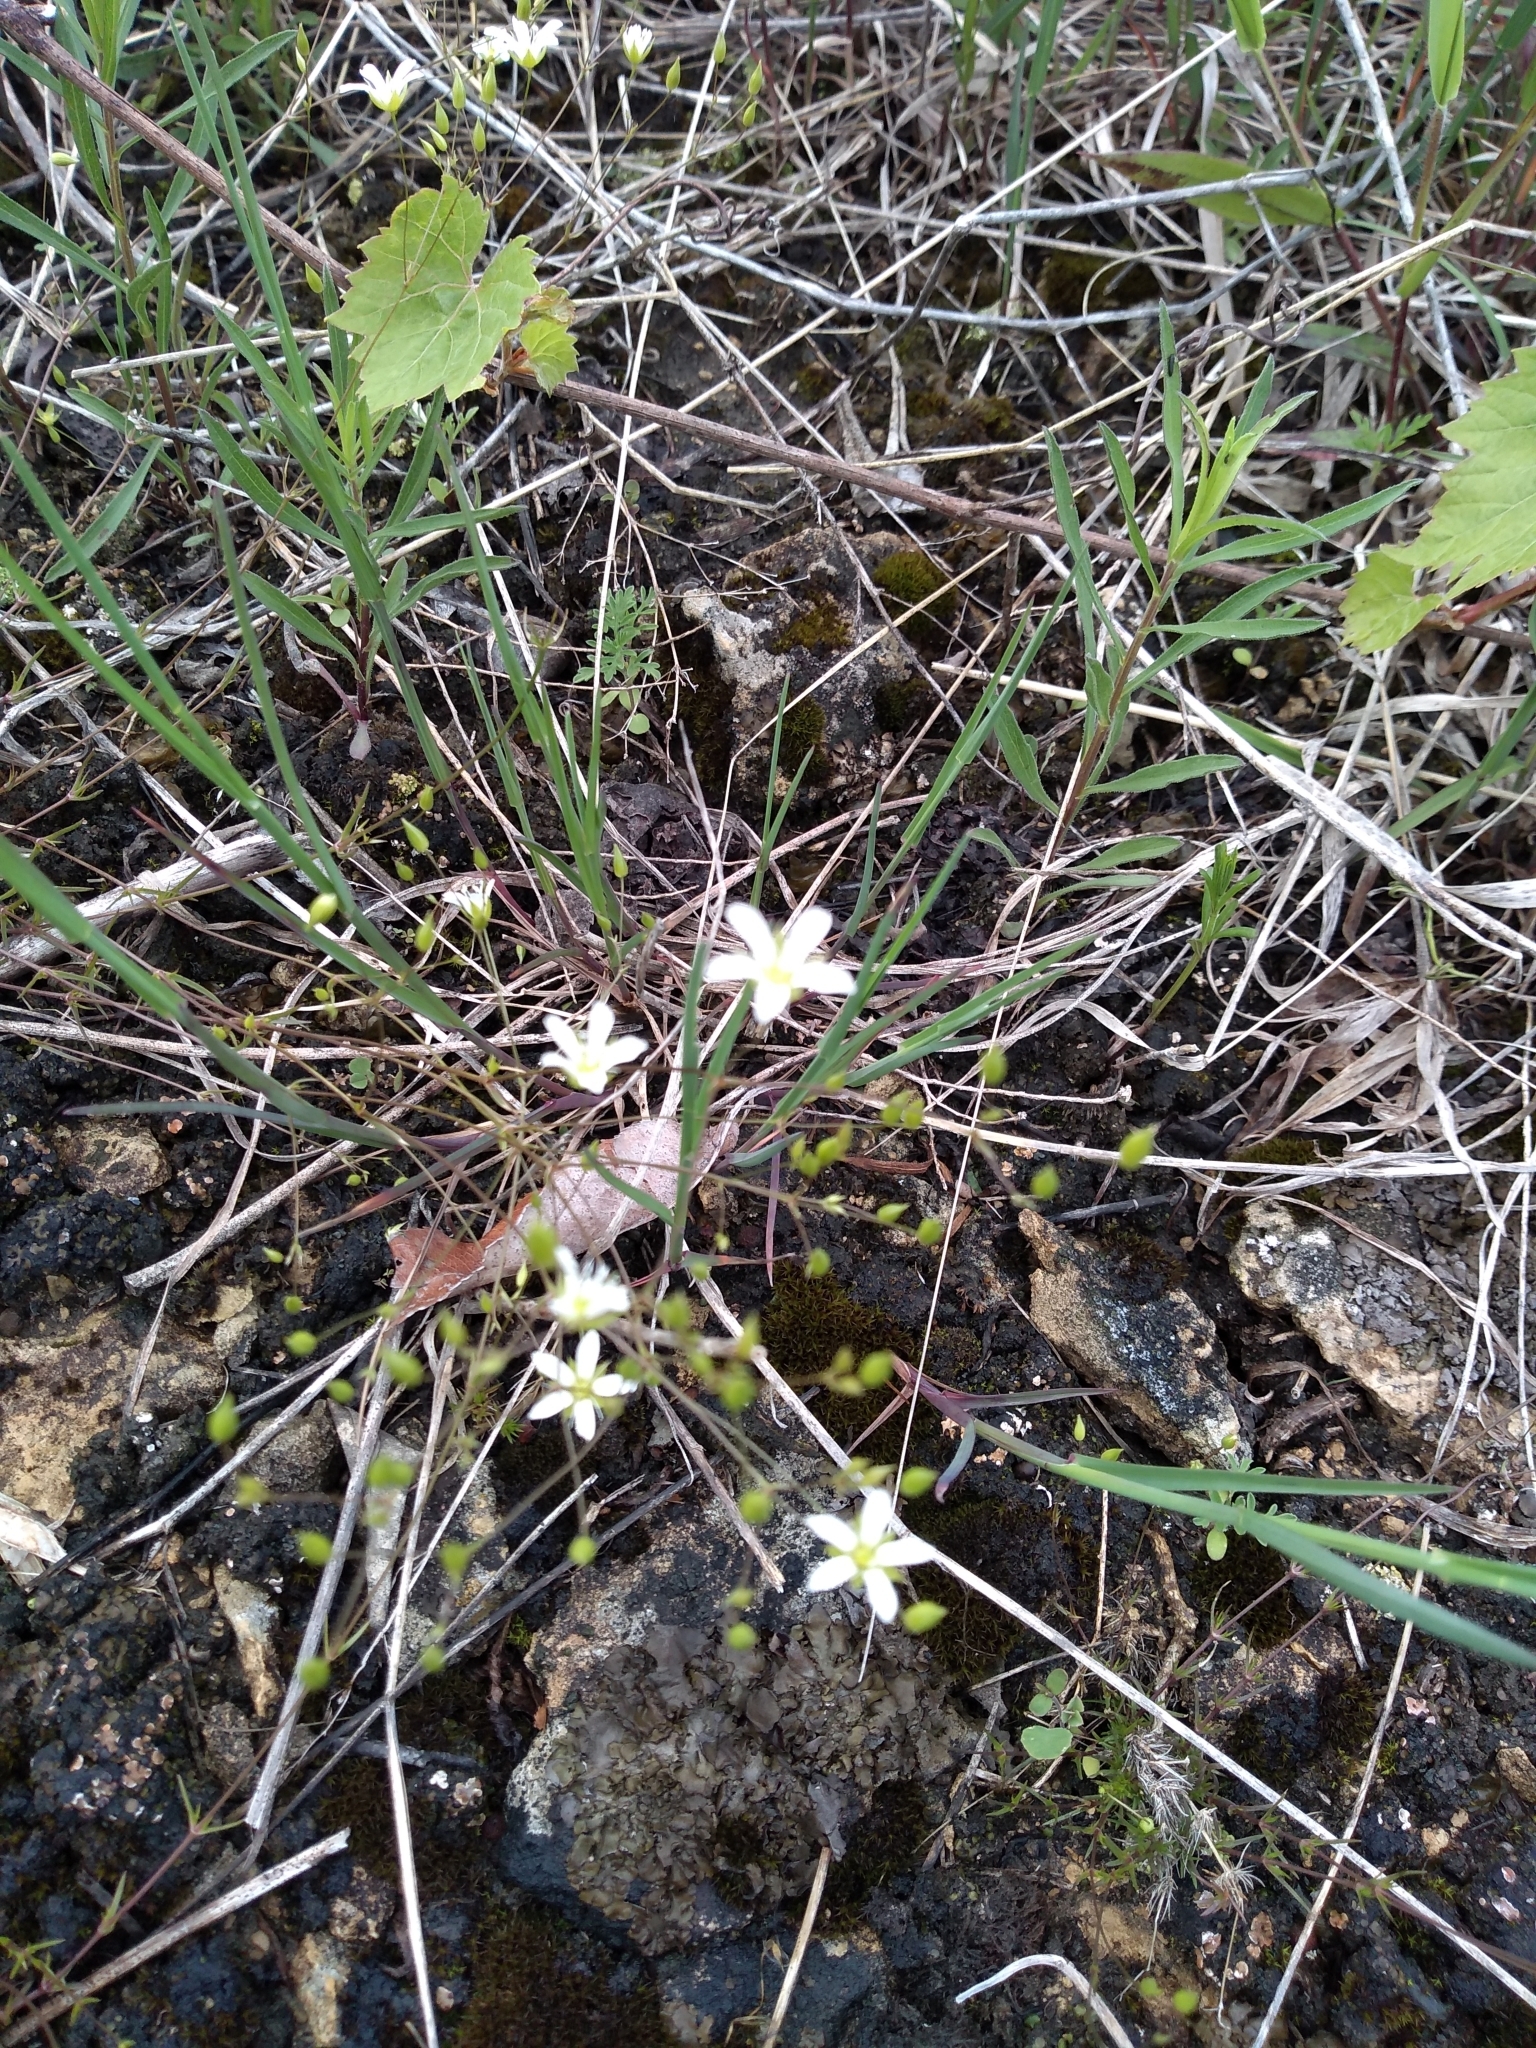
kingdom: Plantae
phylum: Tracheophyta
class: Magnoliopsida
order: Caryophyllales
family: Caryophyllaceae
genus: Sabulina
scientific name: Sabulina michauxii
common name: Michaux's stitchwort
